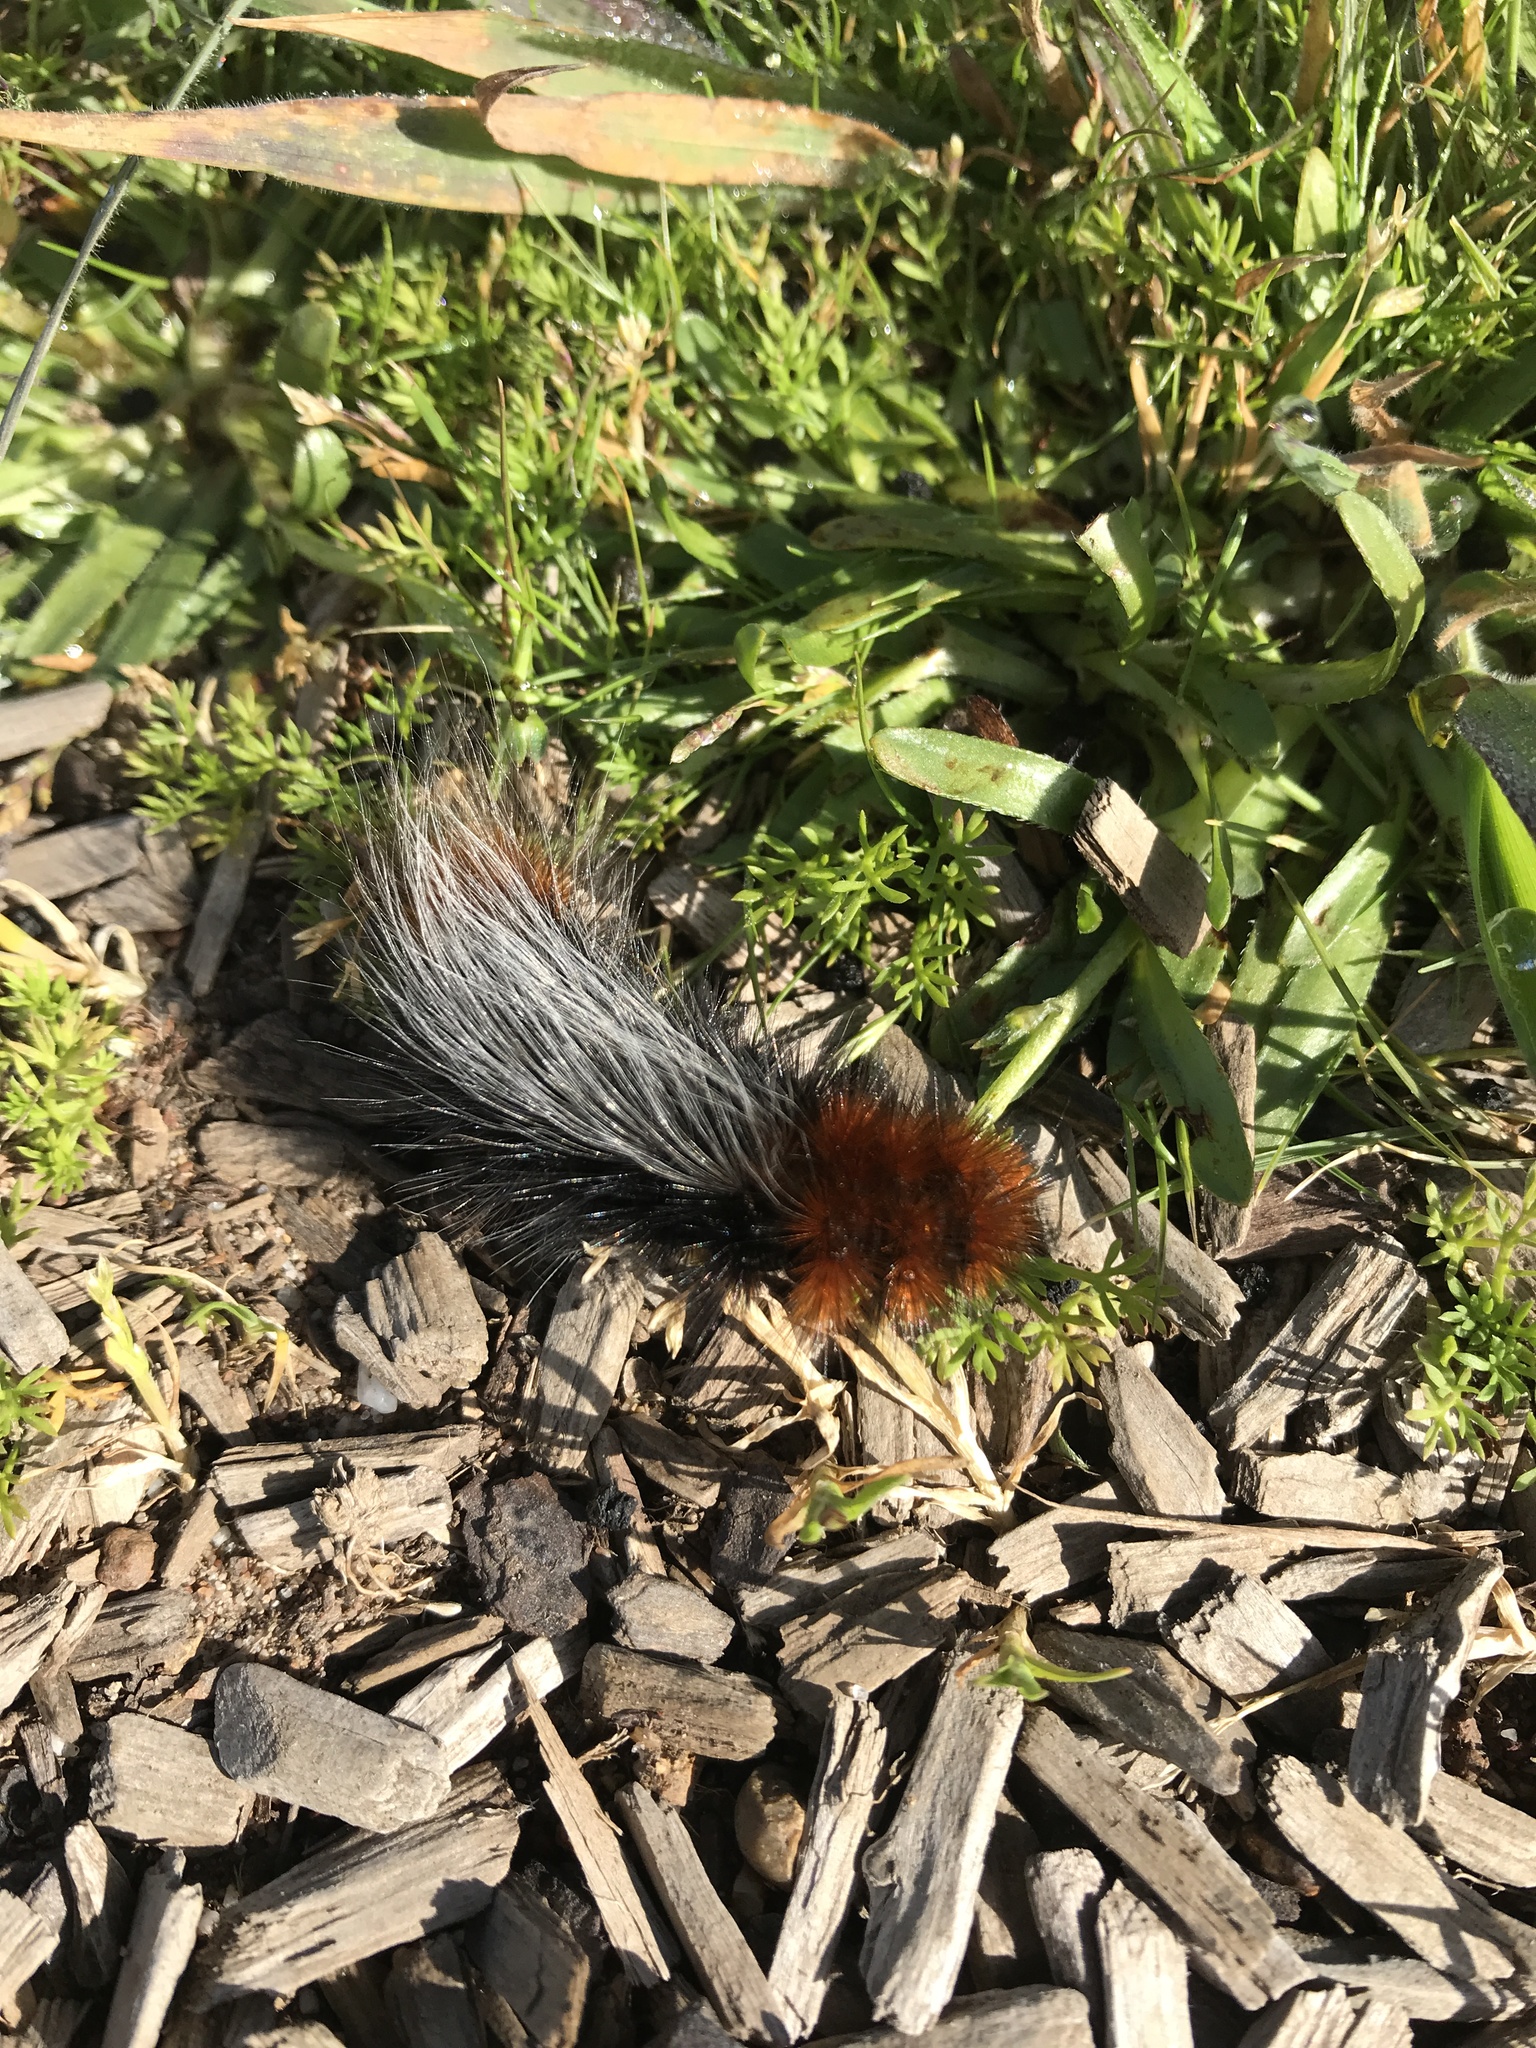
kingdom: Animalia
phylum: Arthropoda
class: Insecta
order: Lepidoptera
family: Erebidae
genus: Arctia
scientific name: Arctia tigrina
